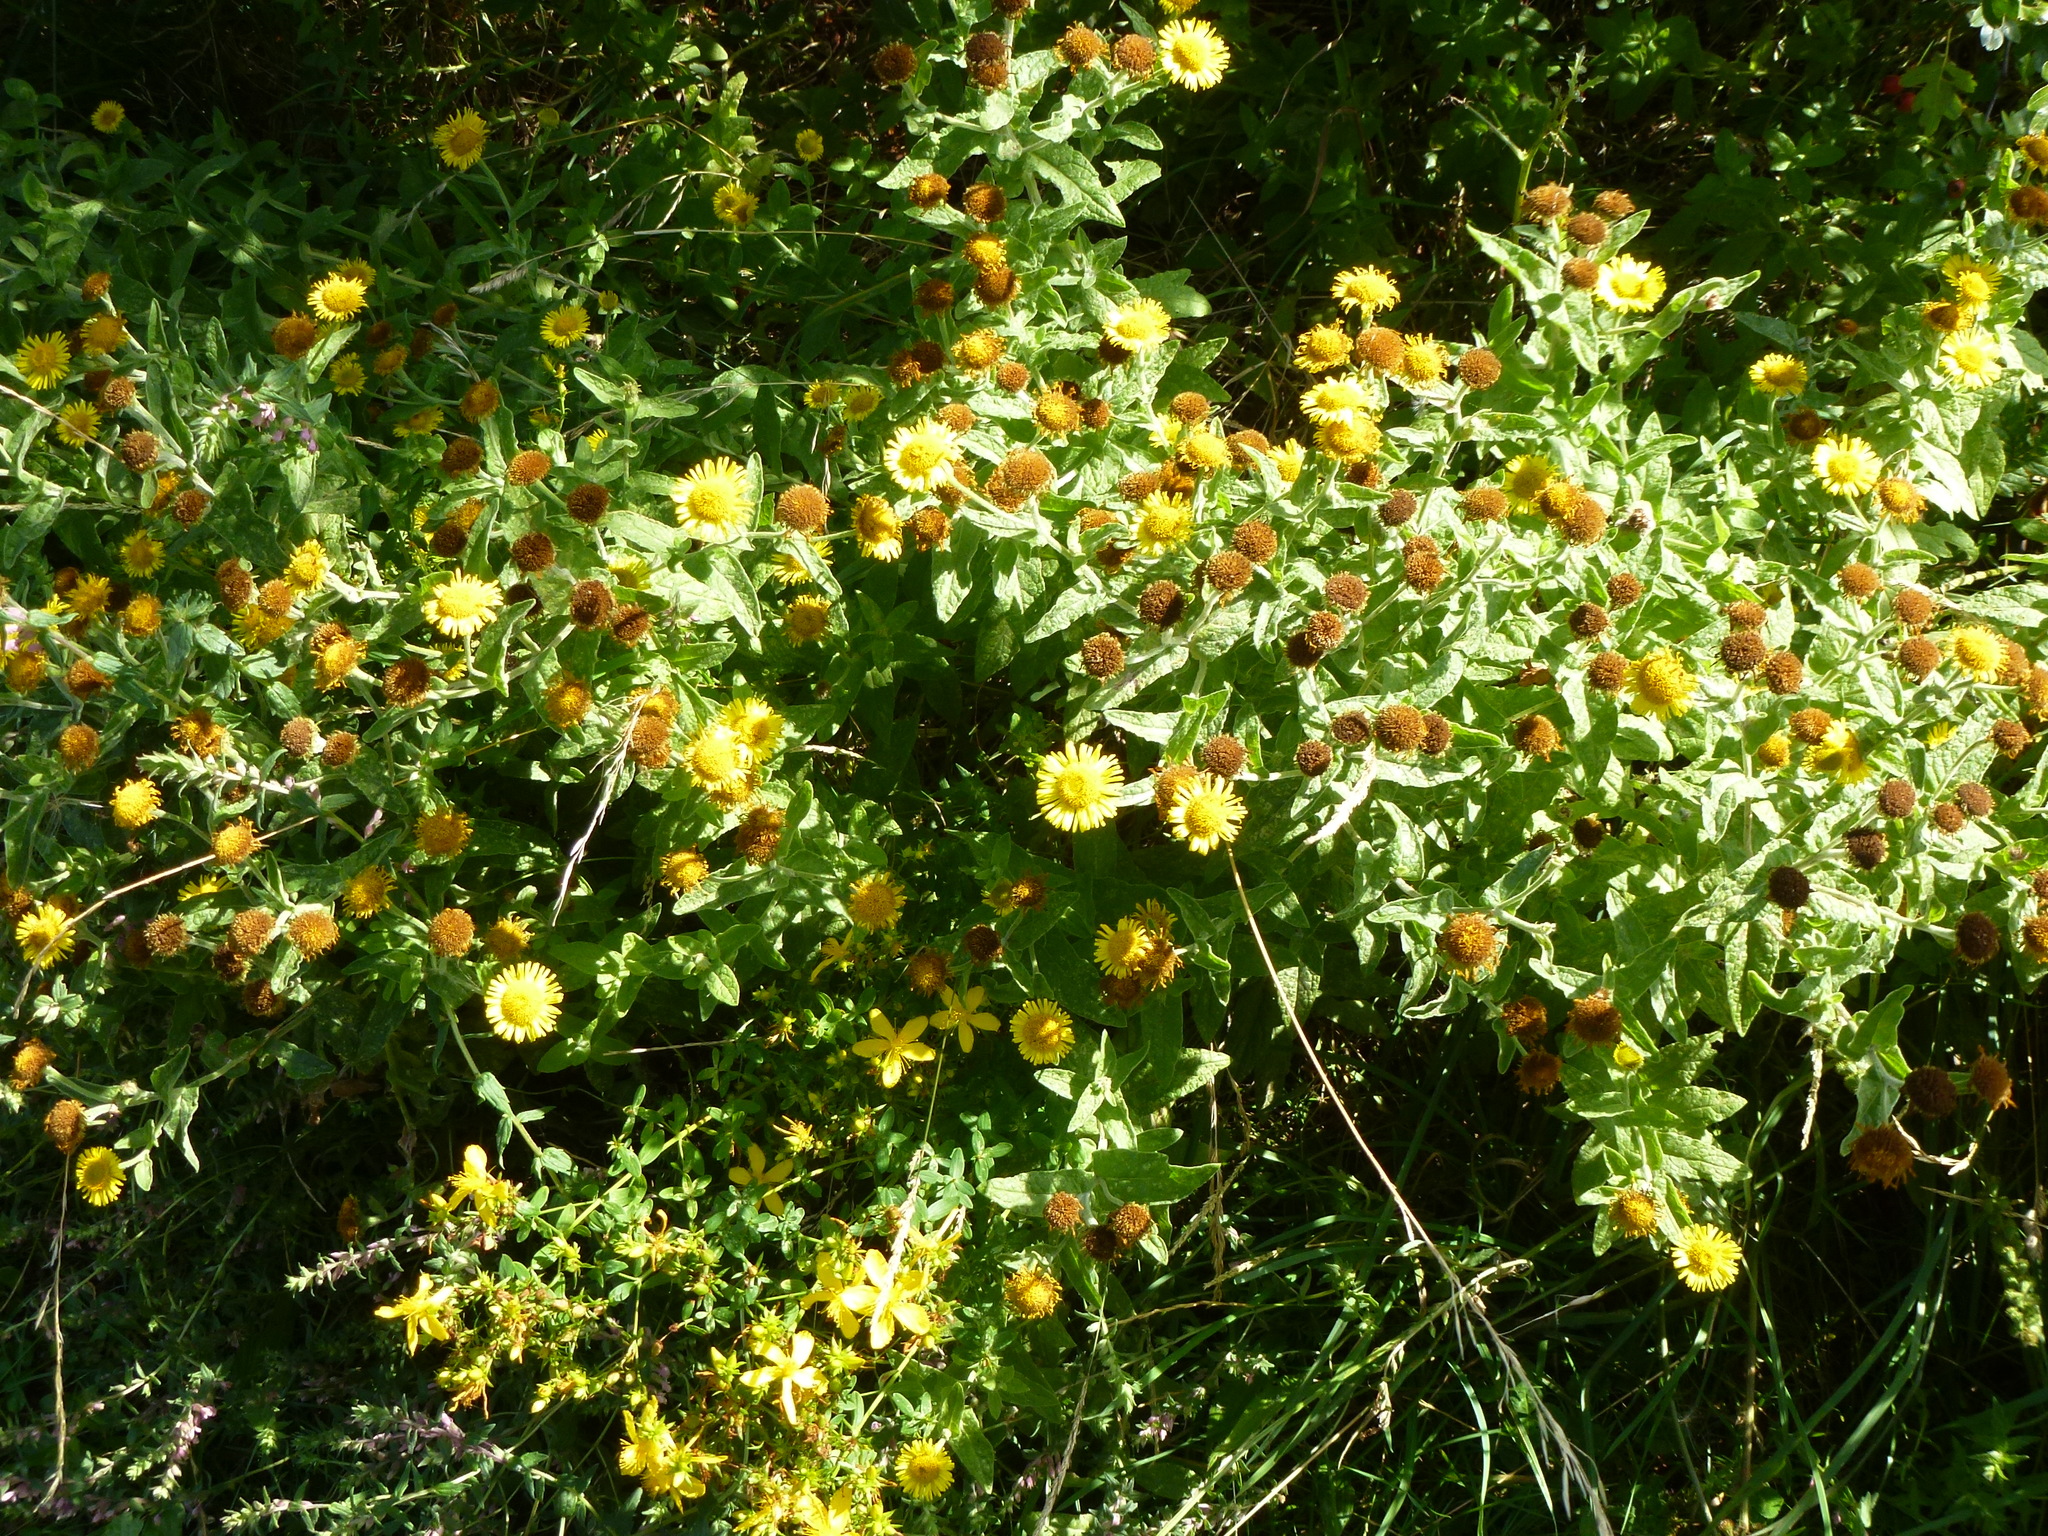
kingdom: Plantae
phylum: Tracheophyta
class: Magnoliopsida
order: Asterales
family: Asteraceae
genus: Pulicaria
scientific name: Pulicaria dysenterica
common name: Common fleabane
